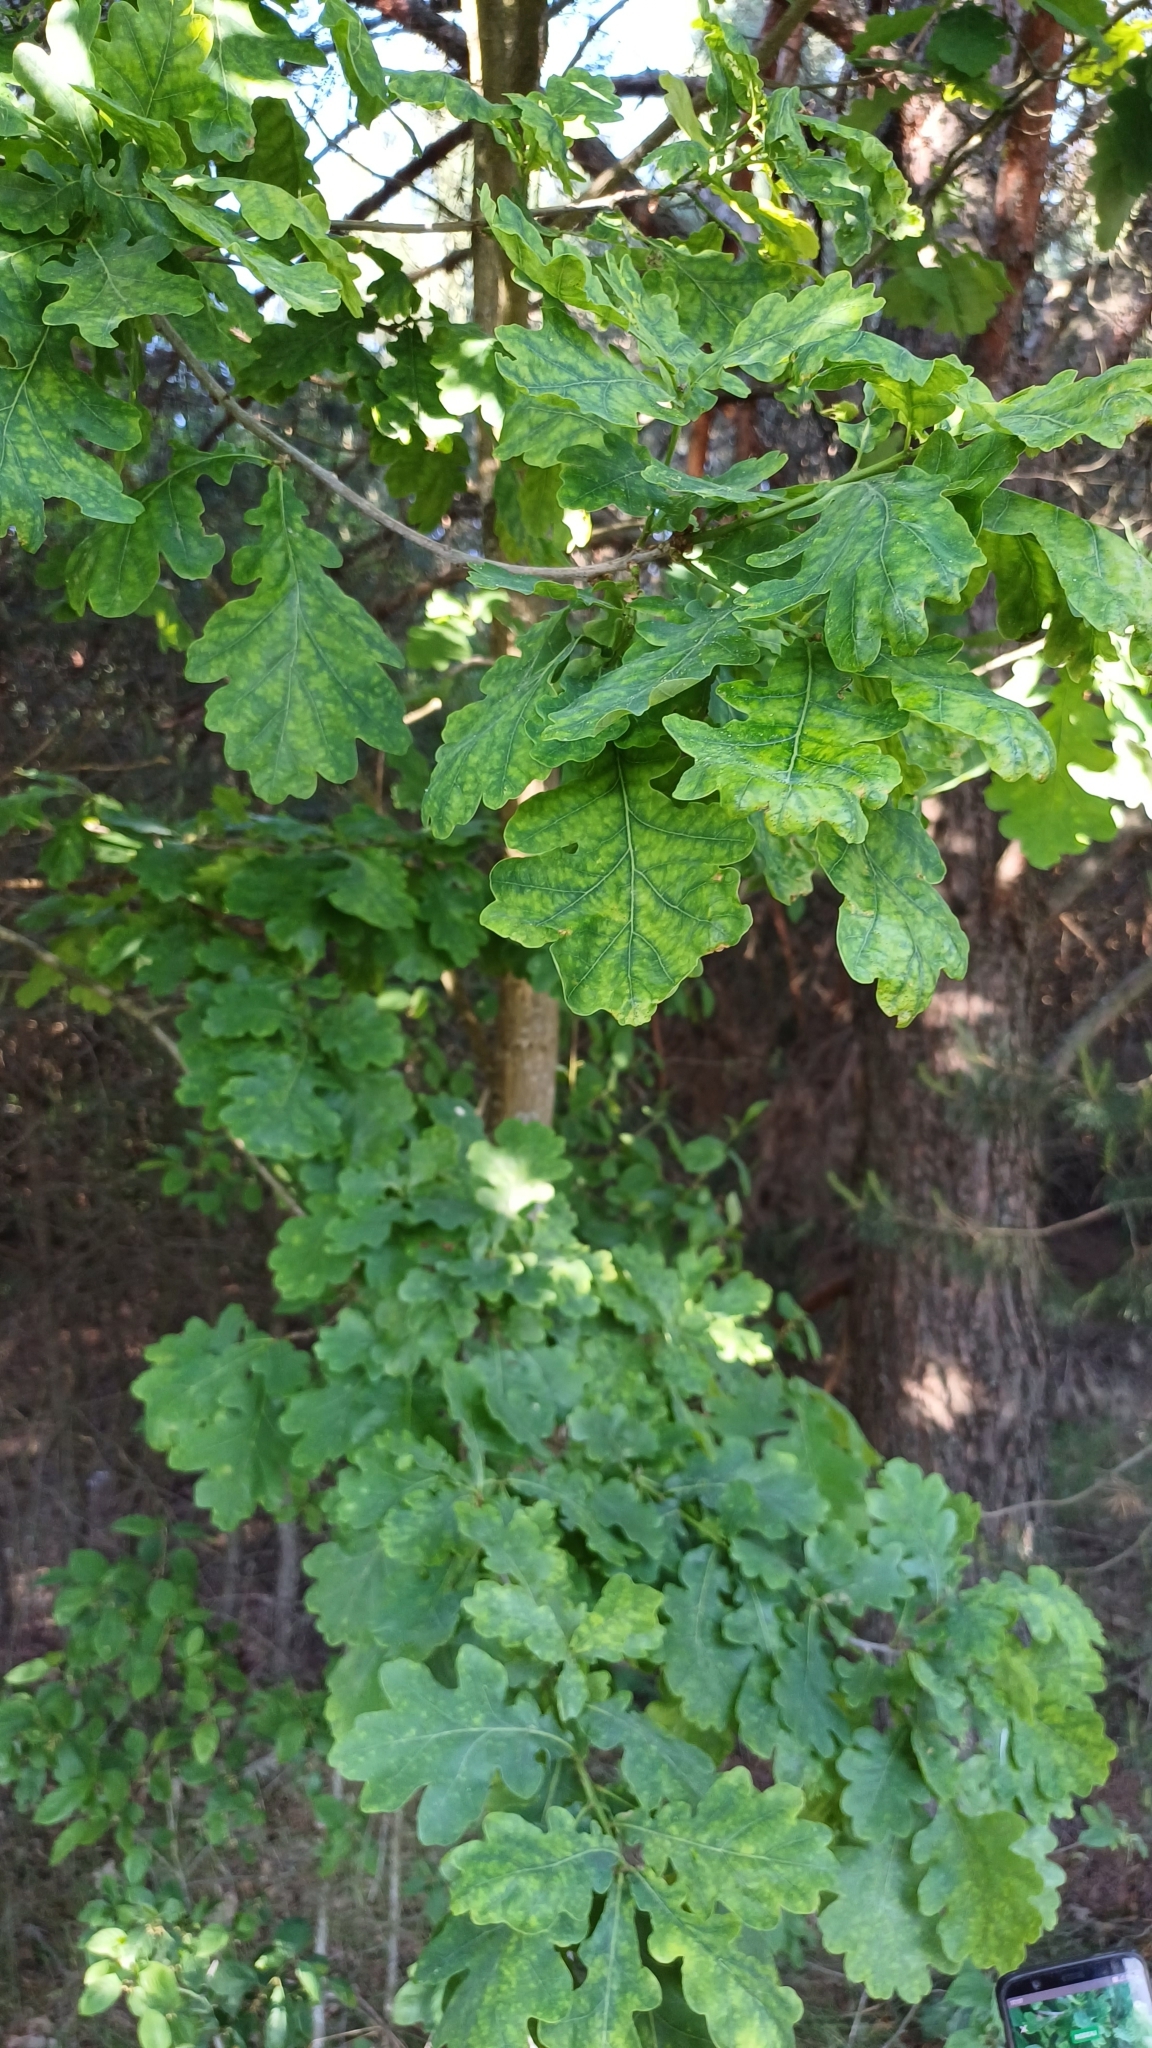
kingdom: Plantae
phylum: Tracheophyta
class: Magnoliopsida
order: Fagales
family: Fagaceae
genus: Quercus
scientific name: Quercus robur
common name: Pedunculate oak
